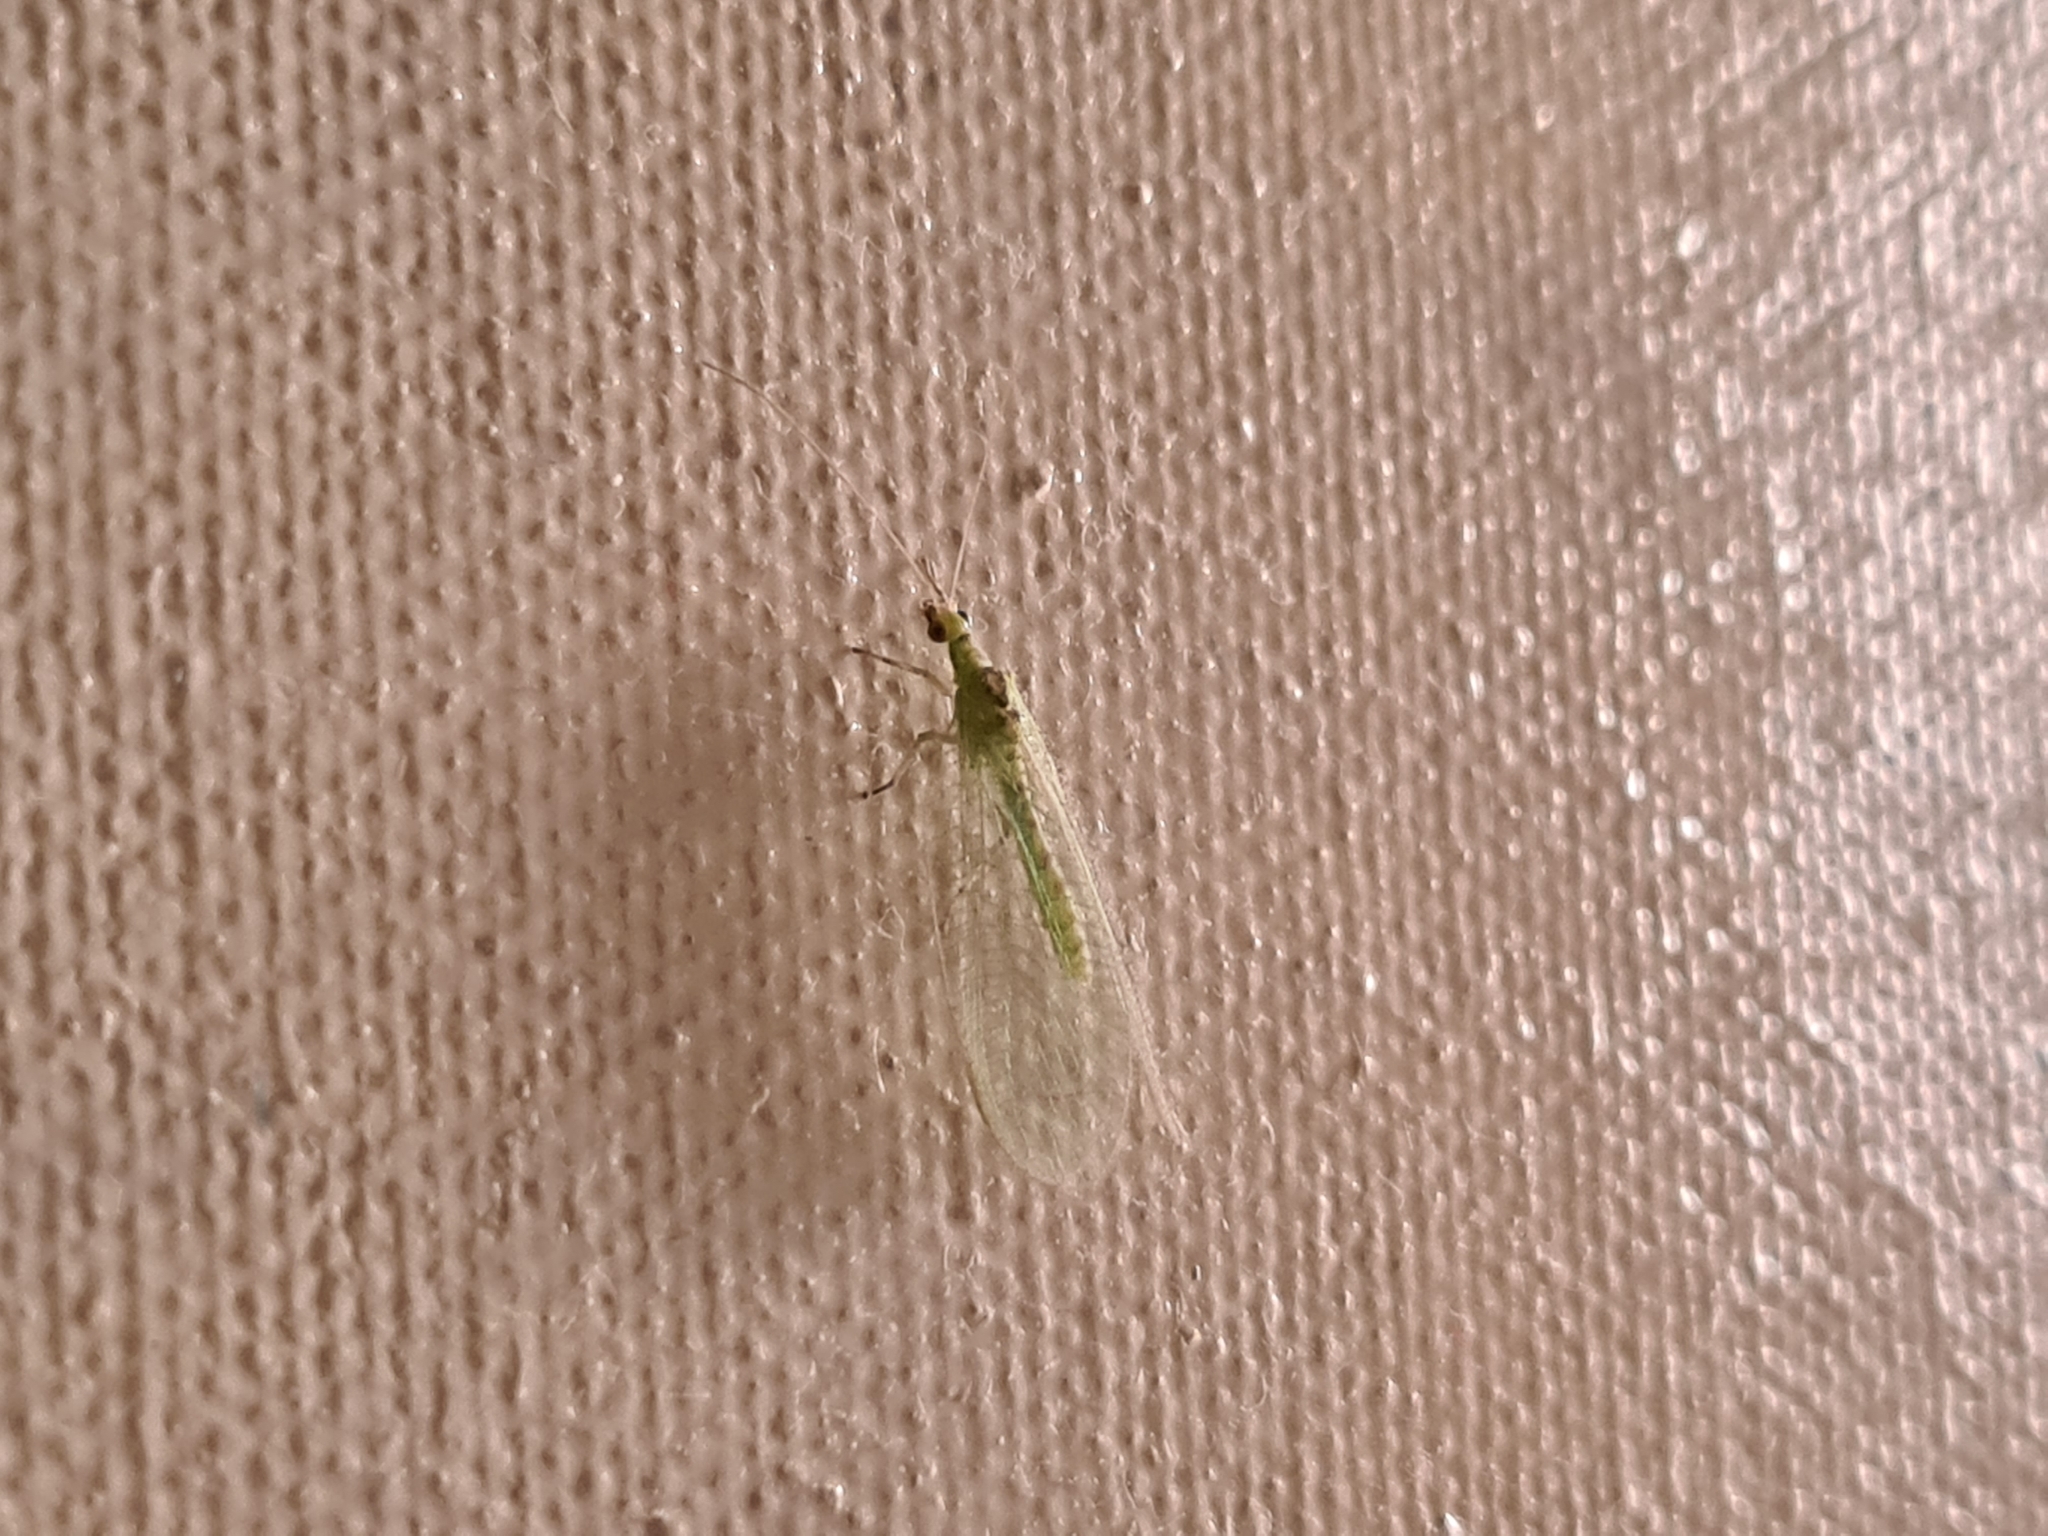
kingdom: Animalia
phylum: Arthropoda
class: Insecta
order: Neuroptera
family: Chrysopidae
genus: Chrysoperla
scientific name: Chrysoperla
